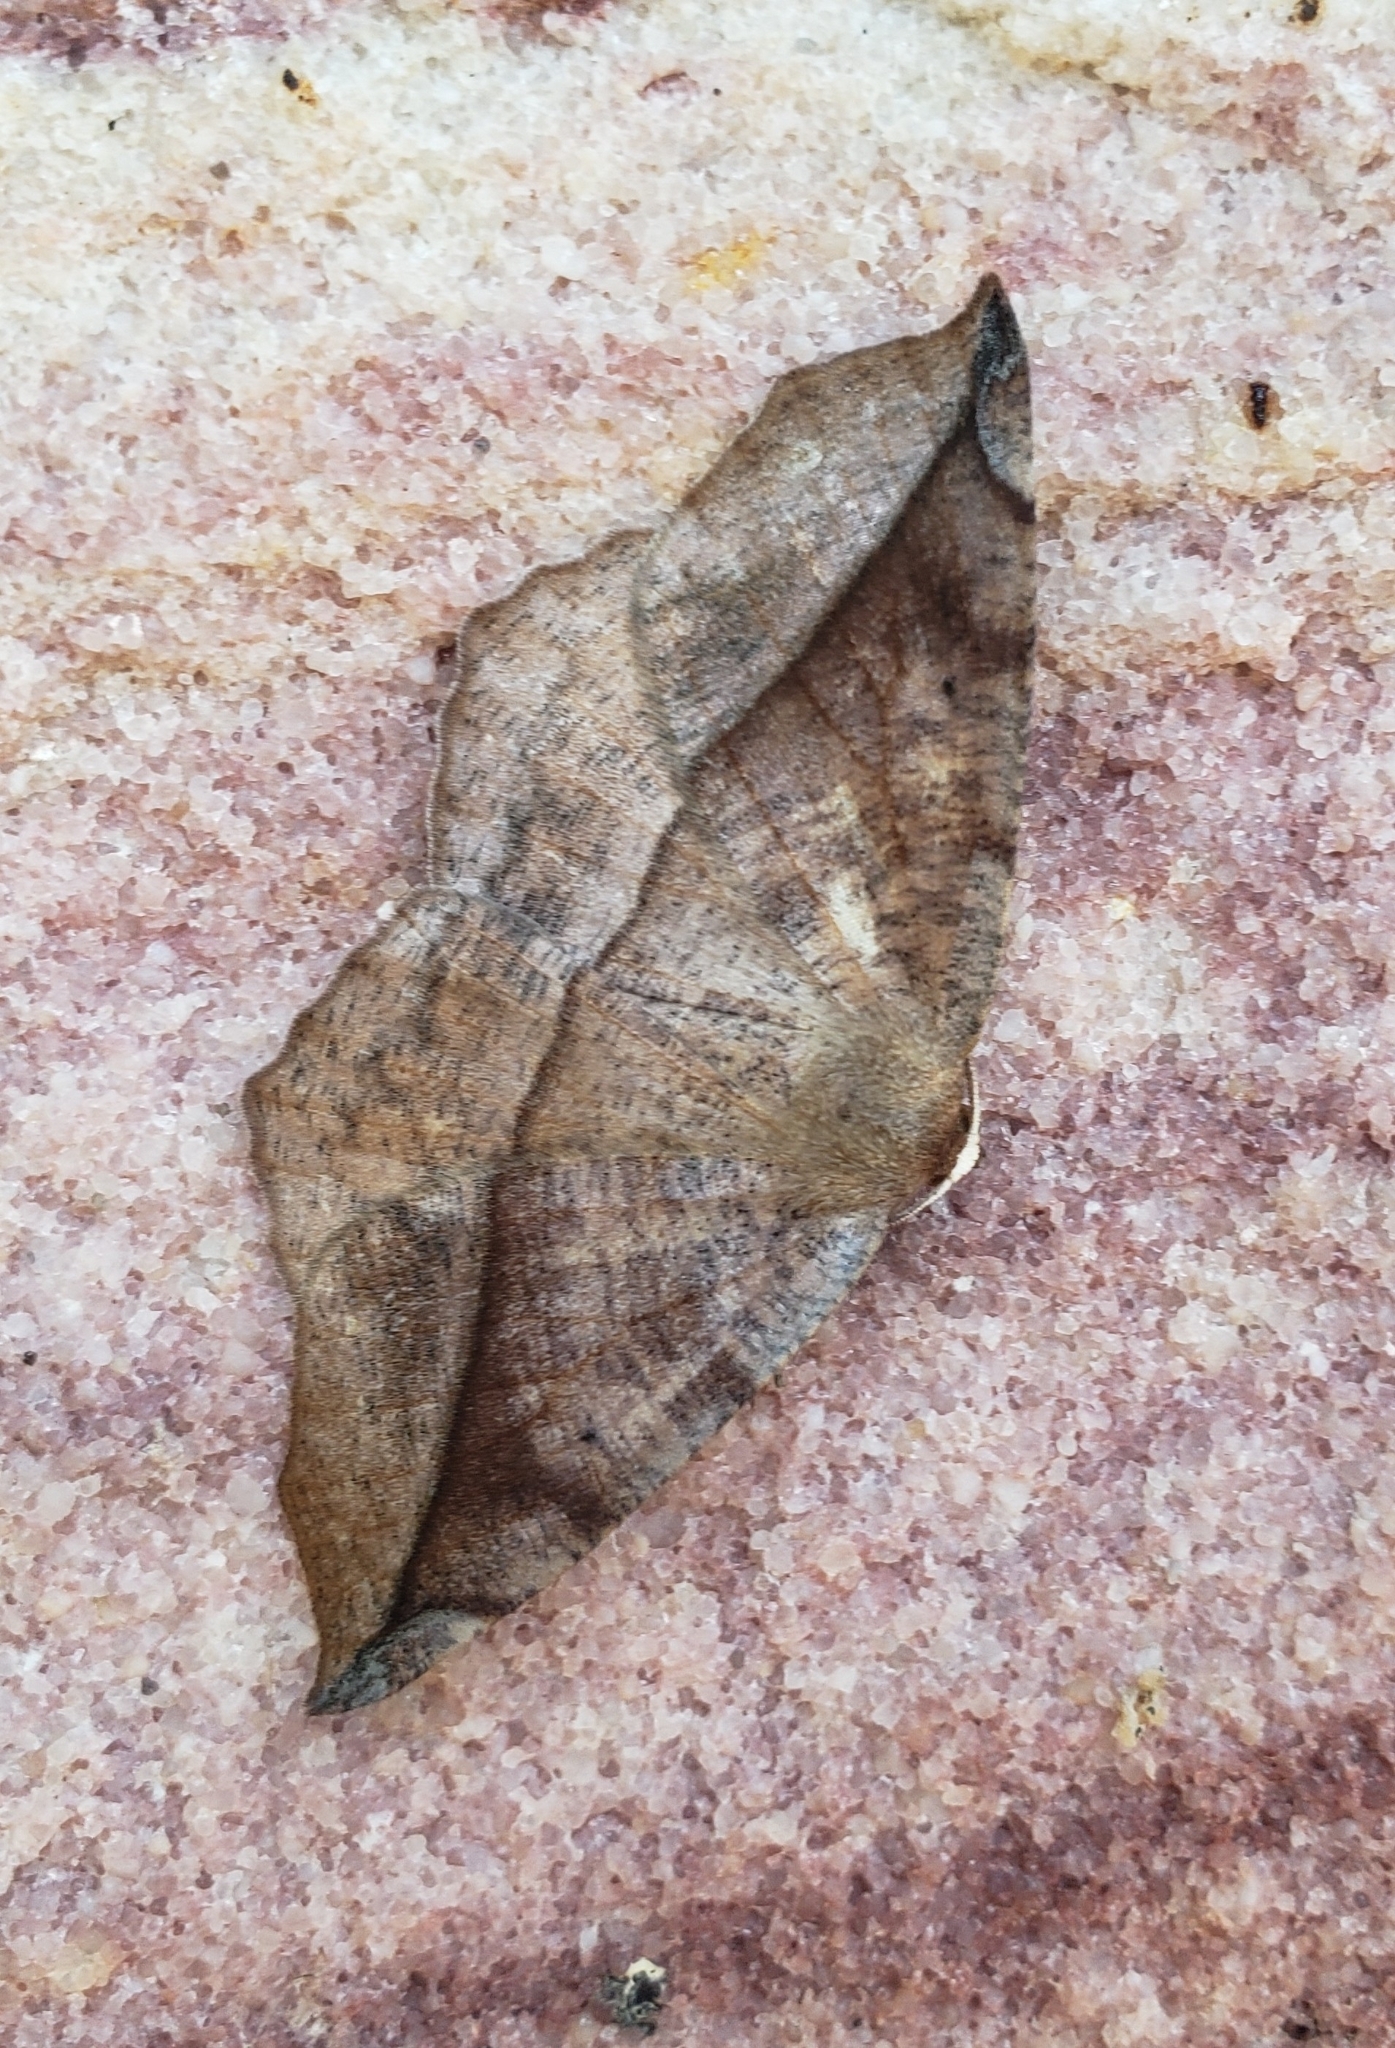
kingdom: Animalia
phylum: Arthropoda
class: Insecta
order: Lepidoptera
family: Geometridae
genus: Eutrapela
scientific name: Eutrapela clemataria
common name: Curved-toothed geometer
